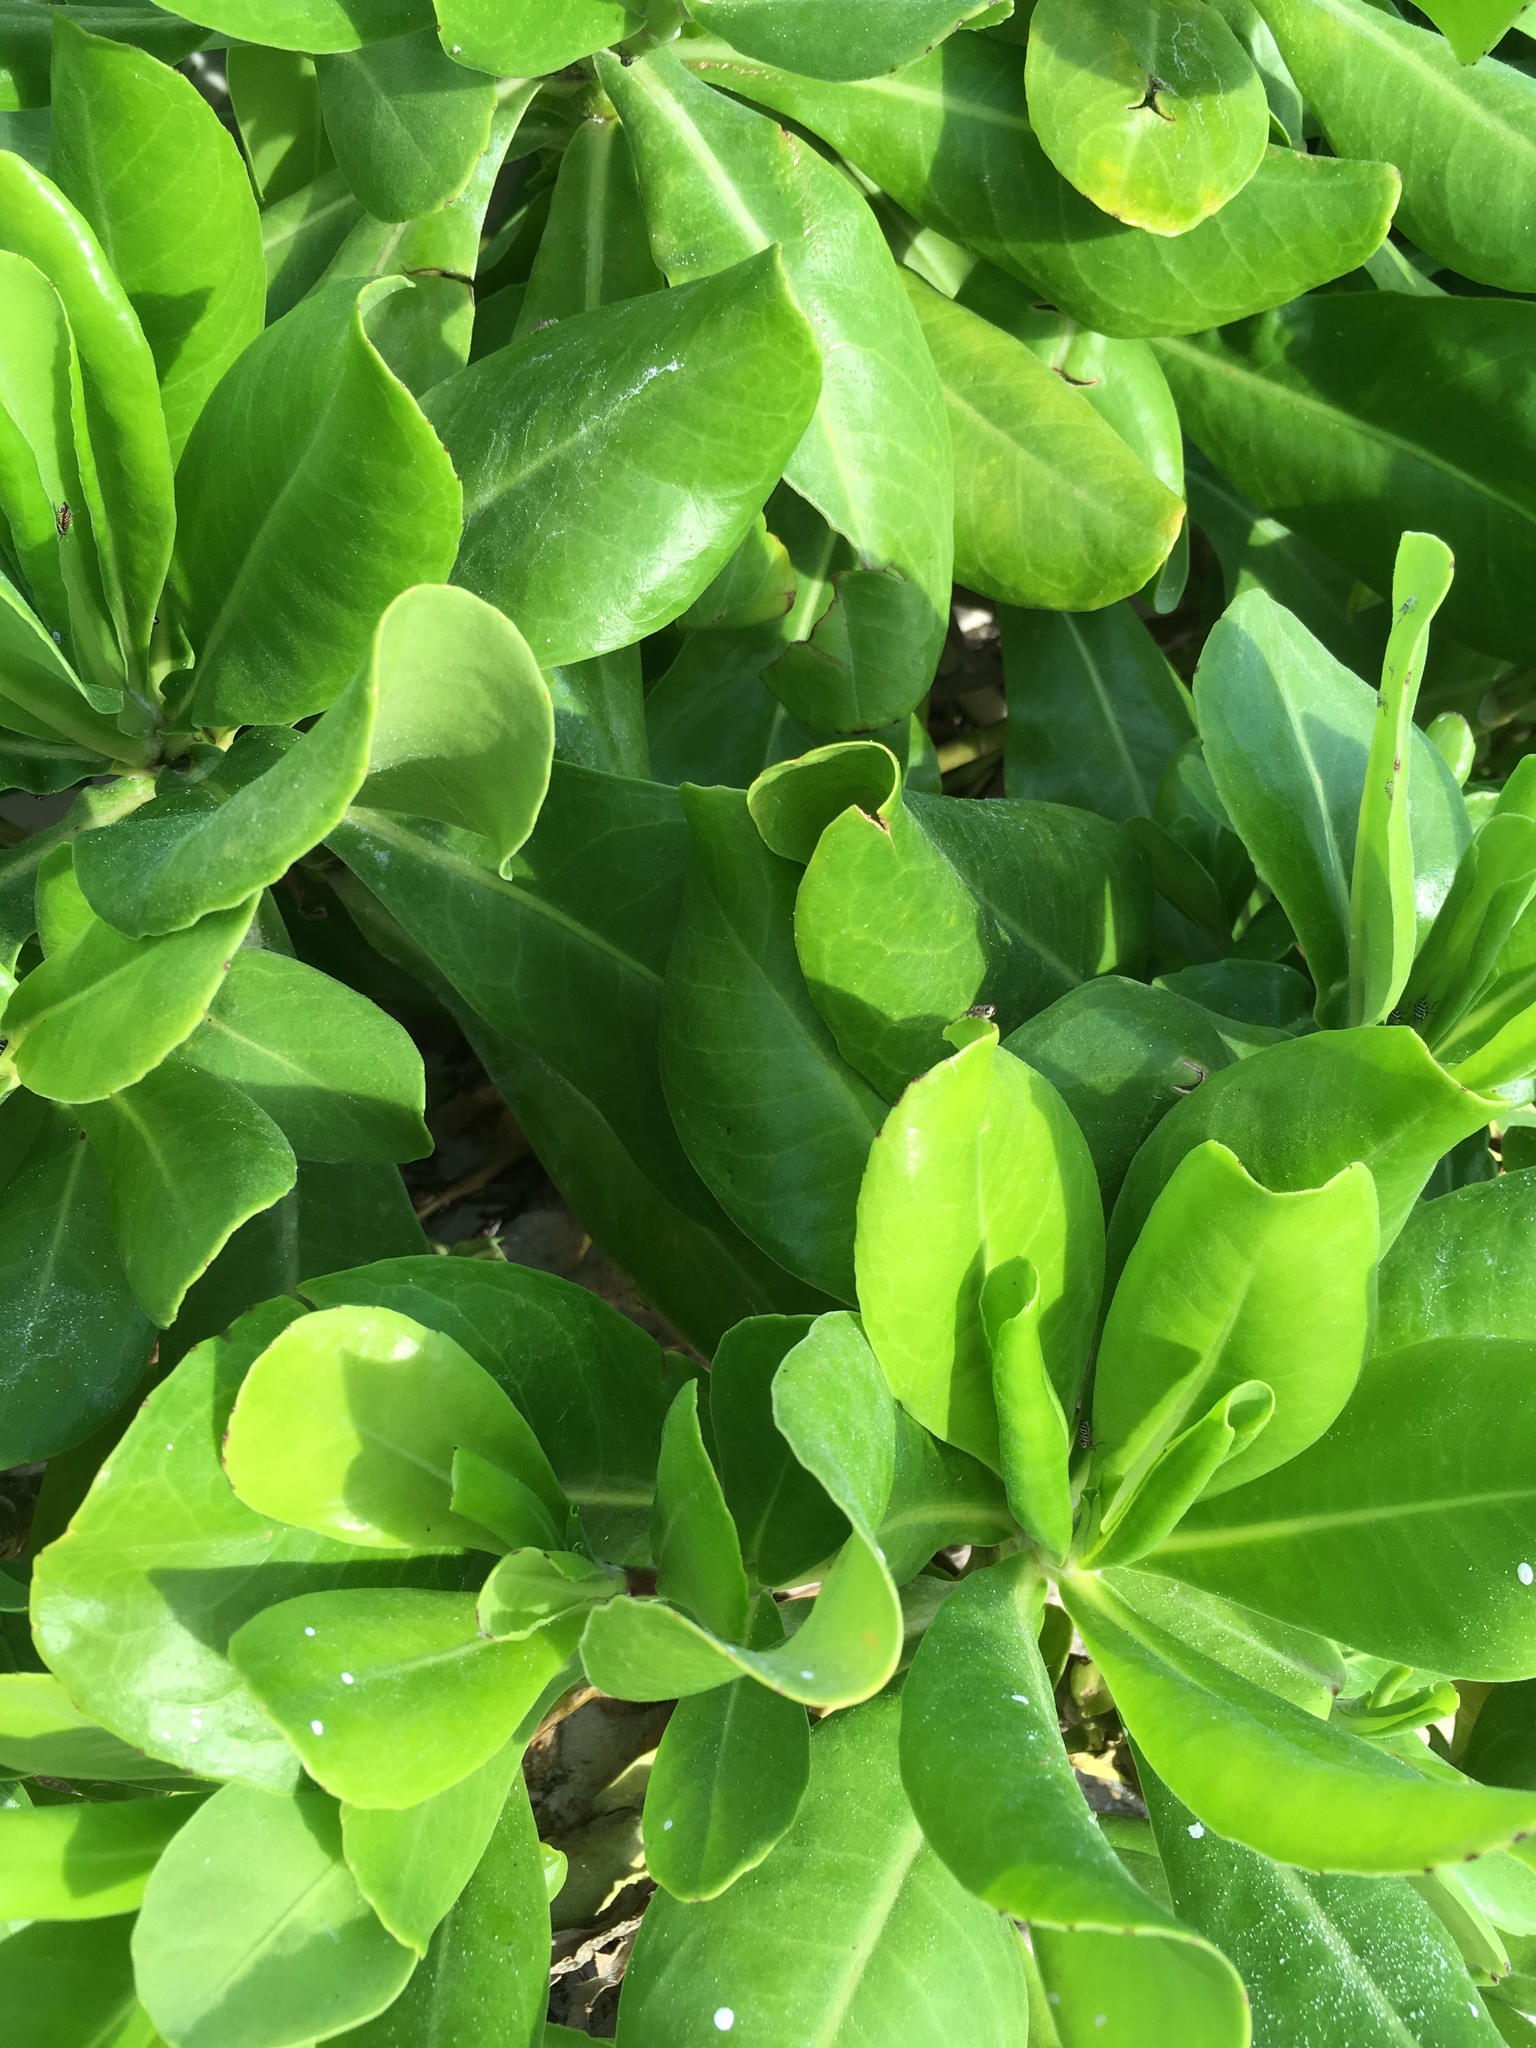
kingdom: Plantae
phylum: Tracheophyta
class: Magnoliopsida
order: Asterales
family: Goodeniaceae
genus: Scaevola
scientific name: Scaevola taccada
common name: Sea lettucetree
